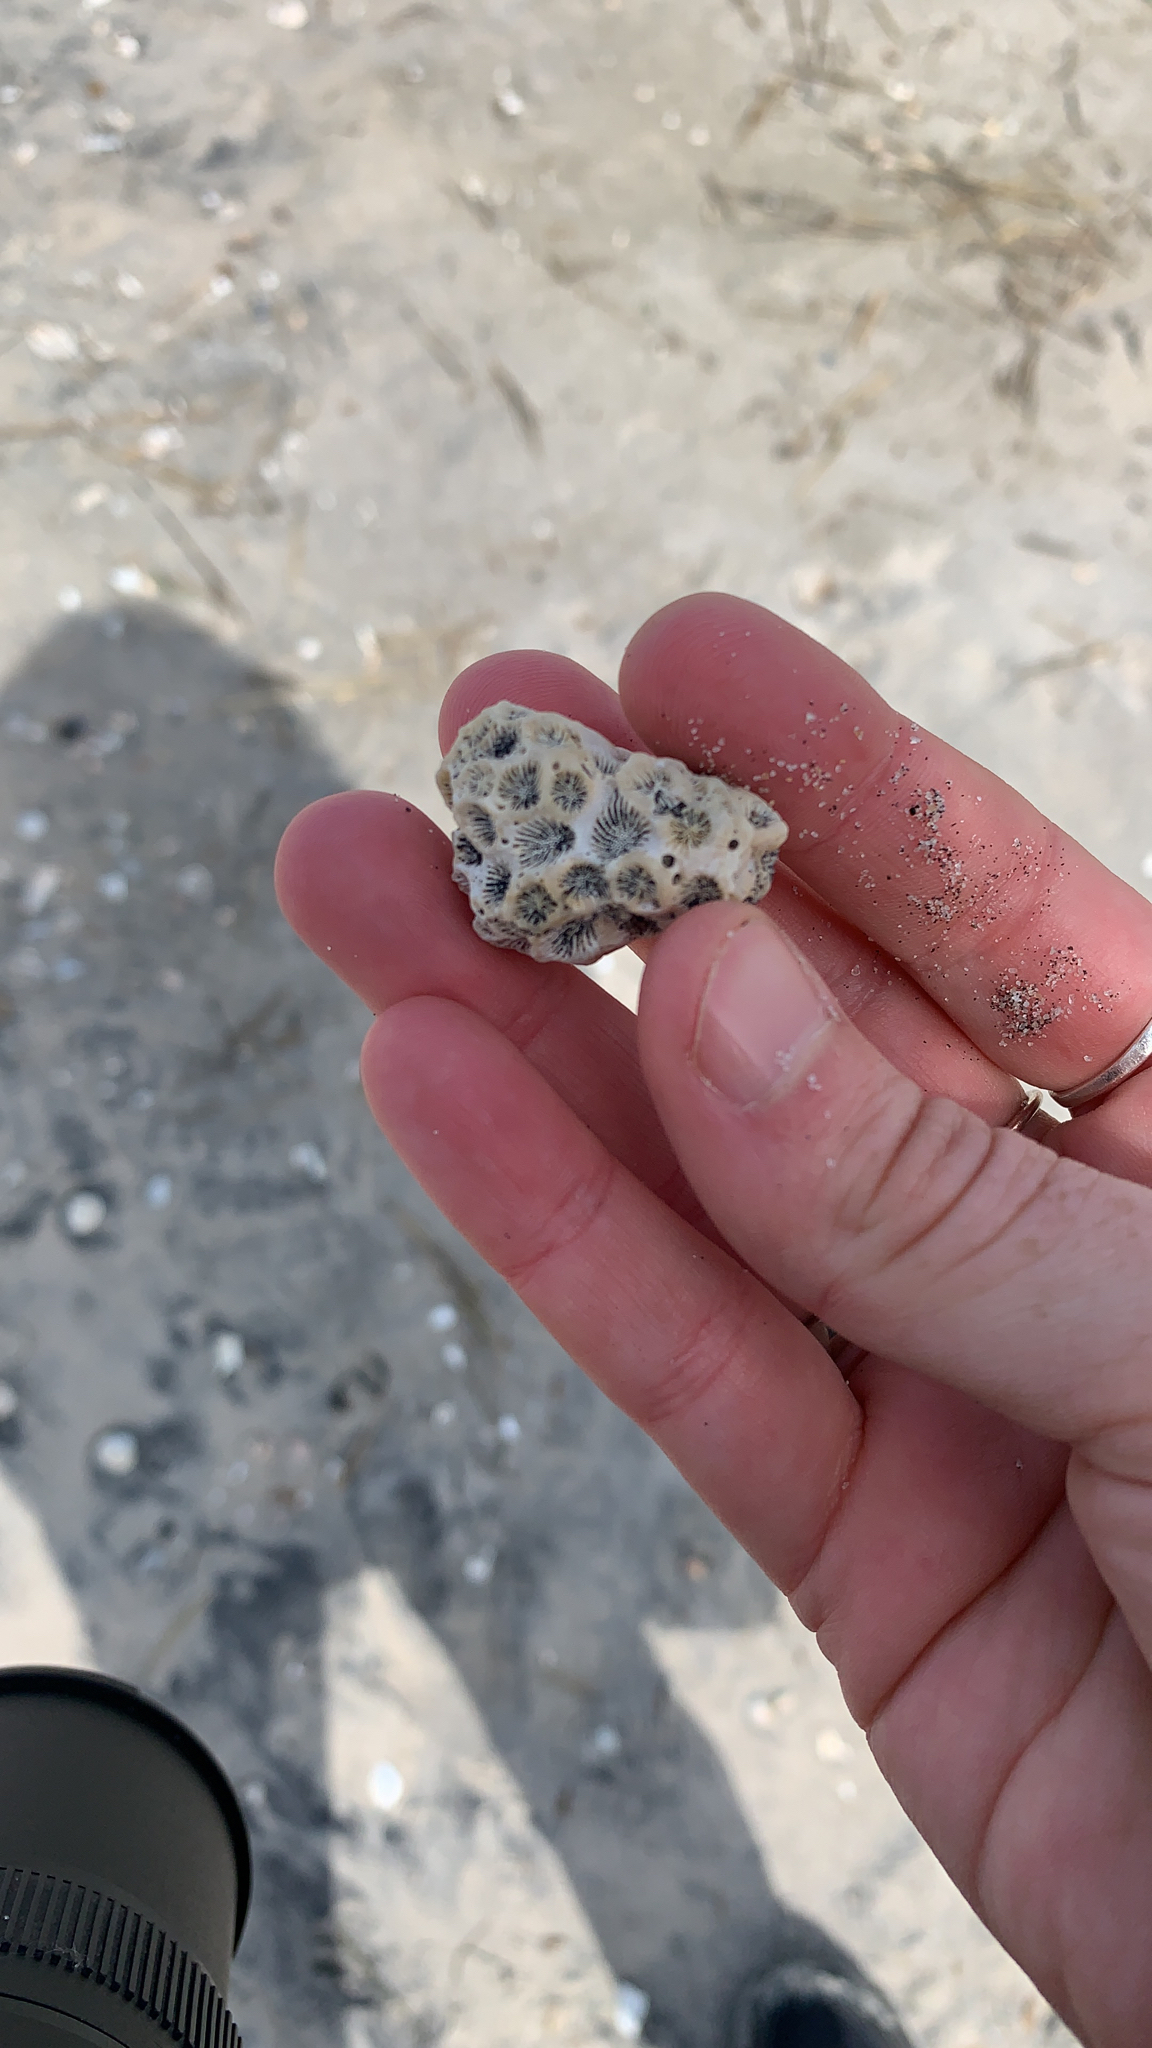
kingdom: Animalia
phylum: Cnidaria
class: Anthozoa
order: Scleractinia
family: Astrangiidae
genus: Astrangia
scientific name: Astrangia poculata
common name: Northern star coral
